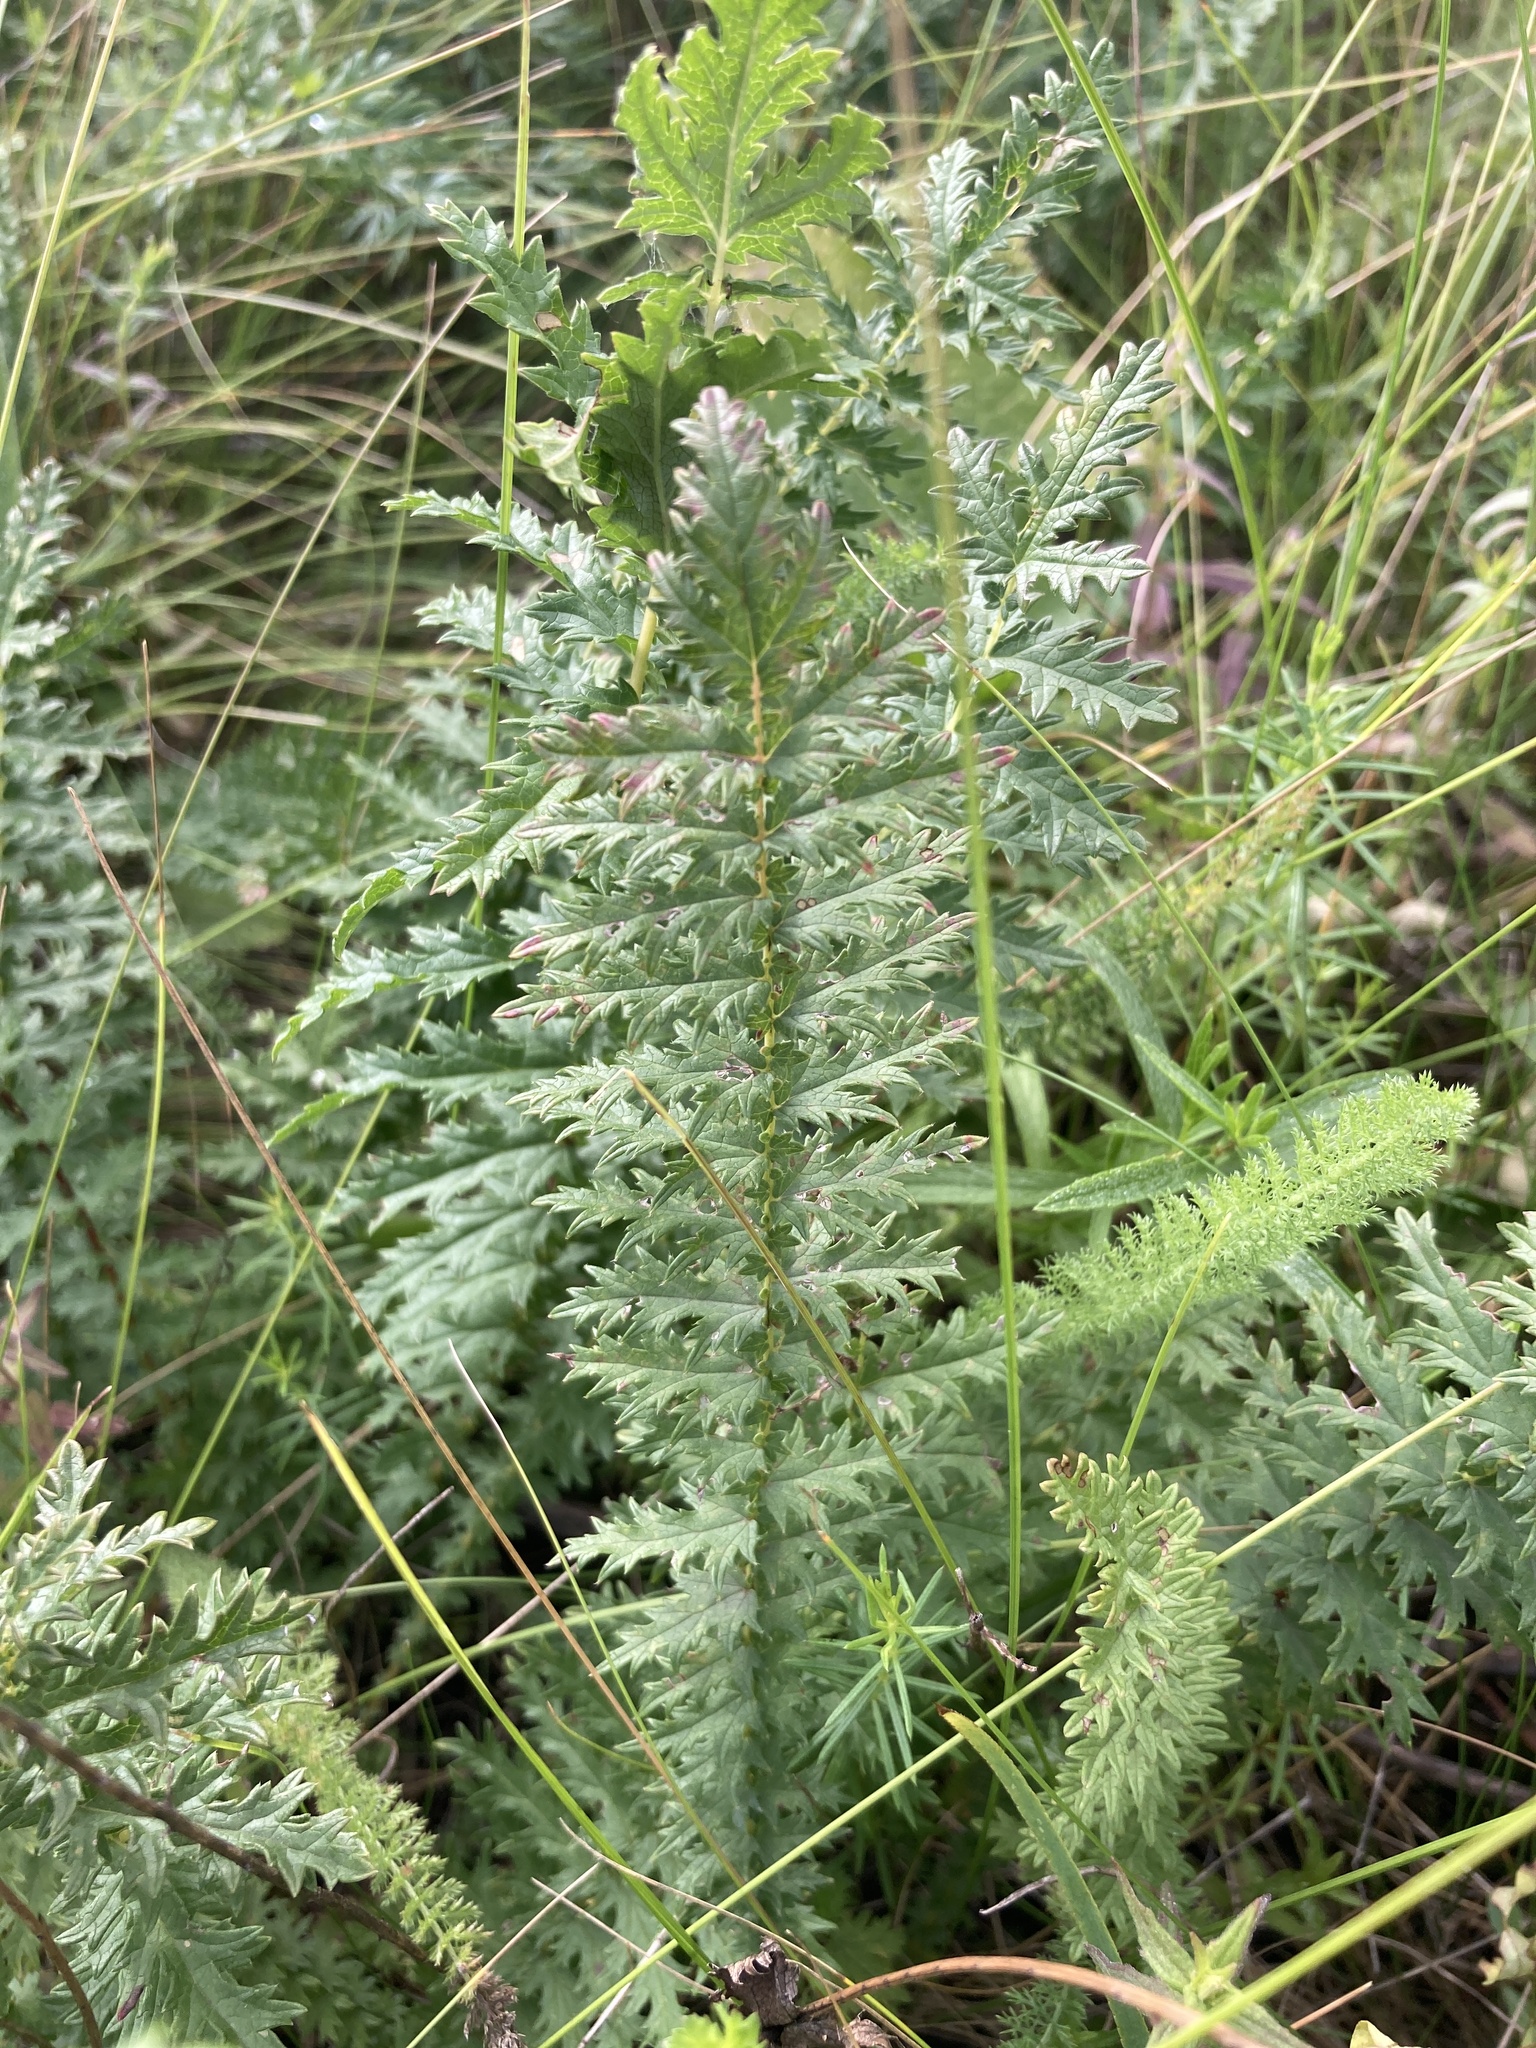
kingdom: Plantae
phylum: Tracheophyta
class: Magnoliopsida
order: Rosales
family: Rosaceae
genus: Filipendula
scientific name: Filipendula vulgaris
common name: Dropwort
